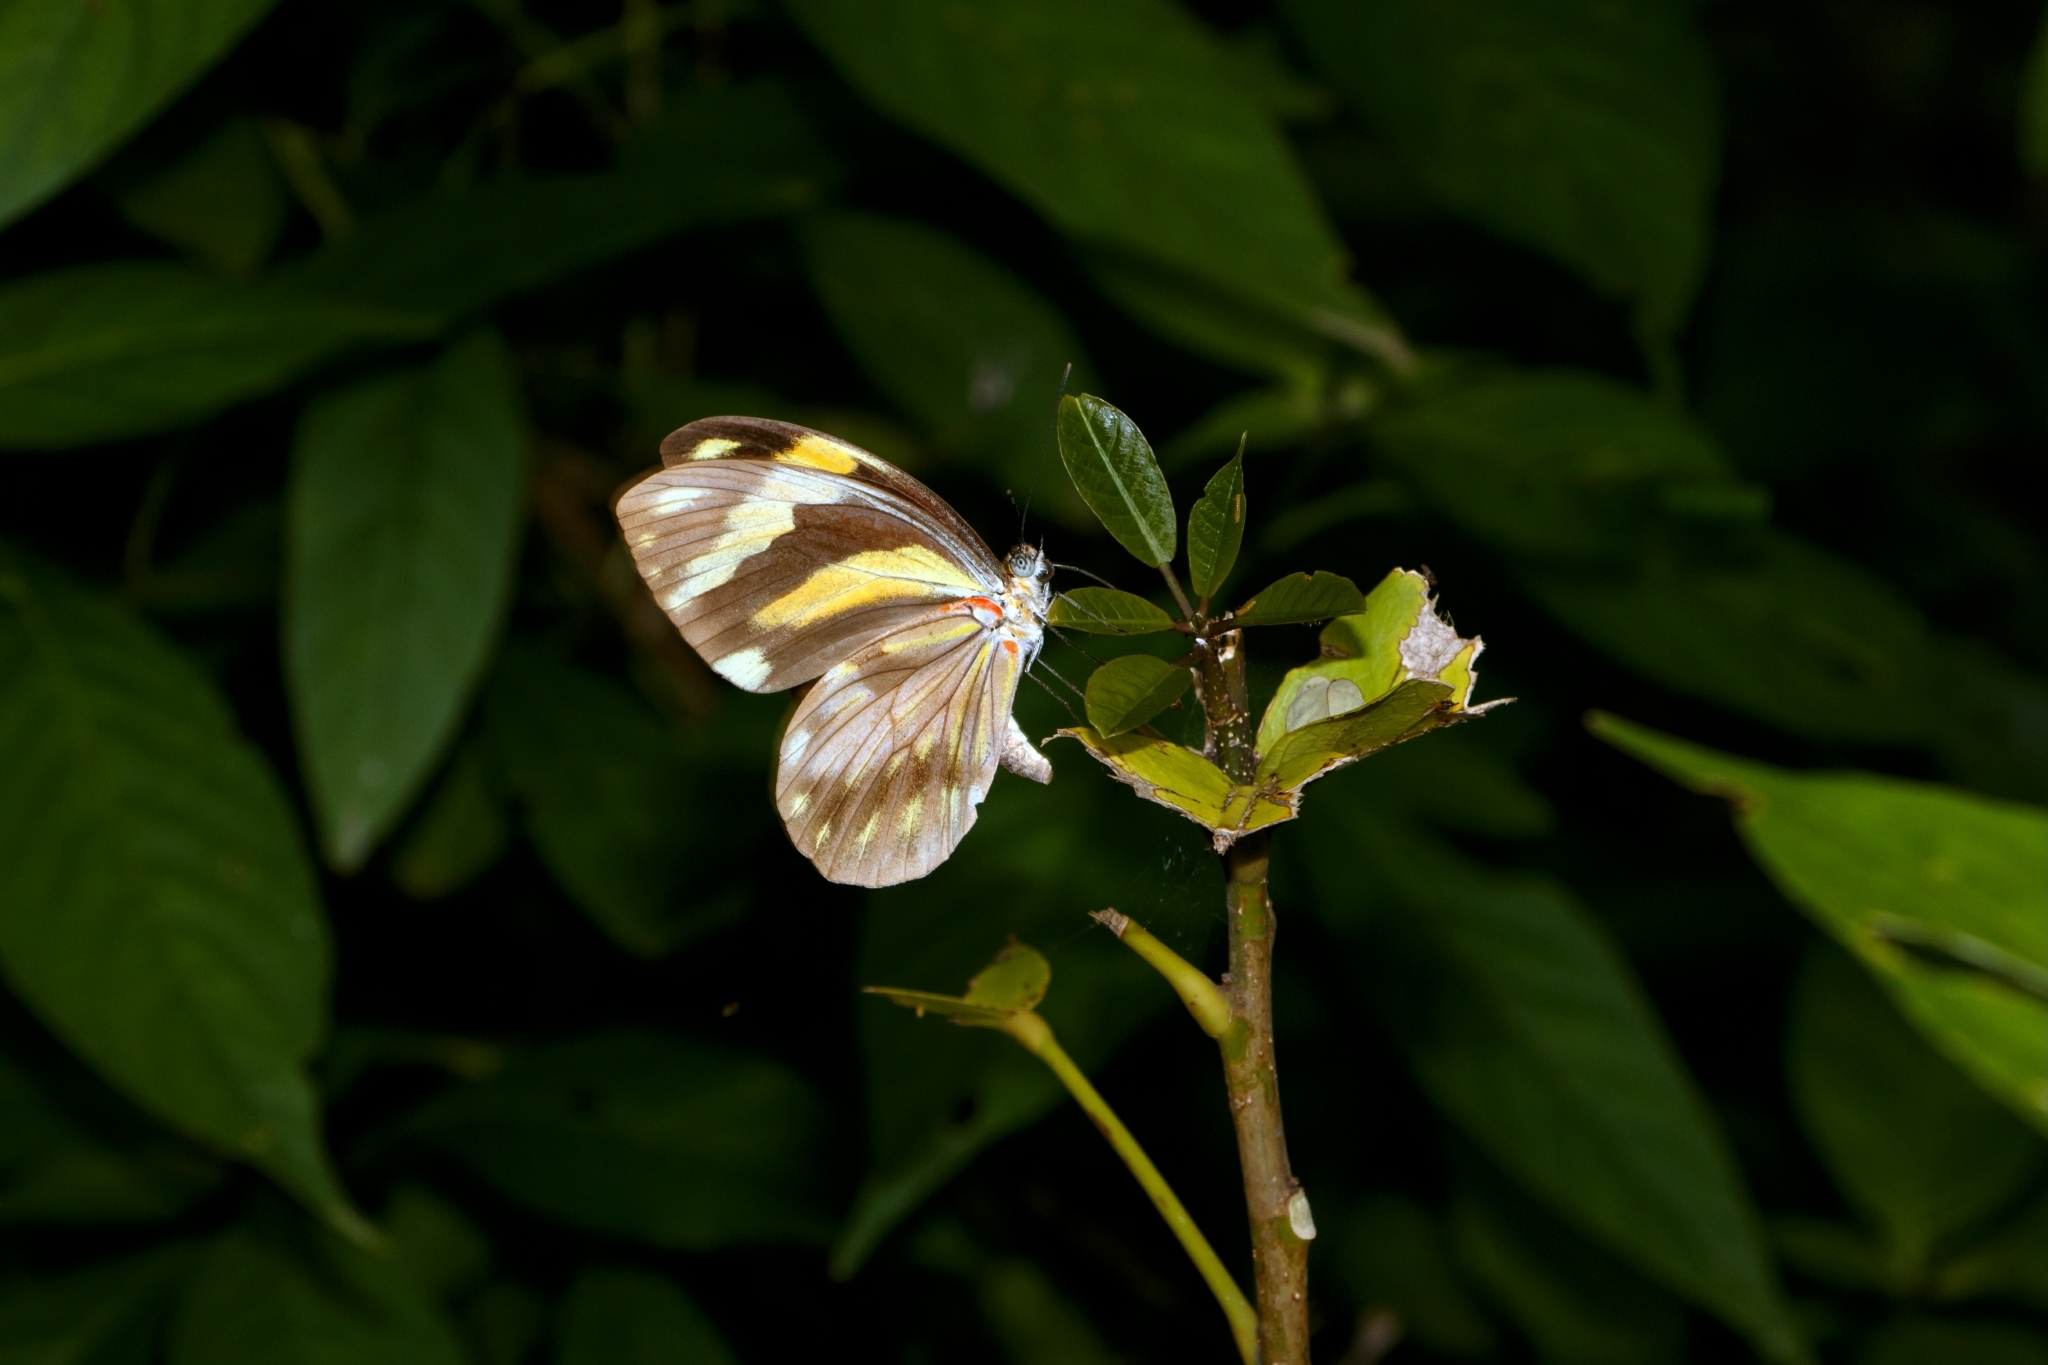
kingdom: Animalia
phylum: Arthropoda
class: Insecta
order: Lepidoptera
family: Pieridae
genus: Pieriballia
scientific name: Pieriballia viardi
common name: Painted white
